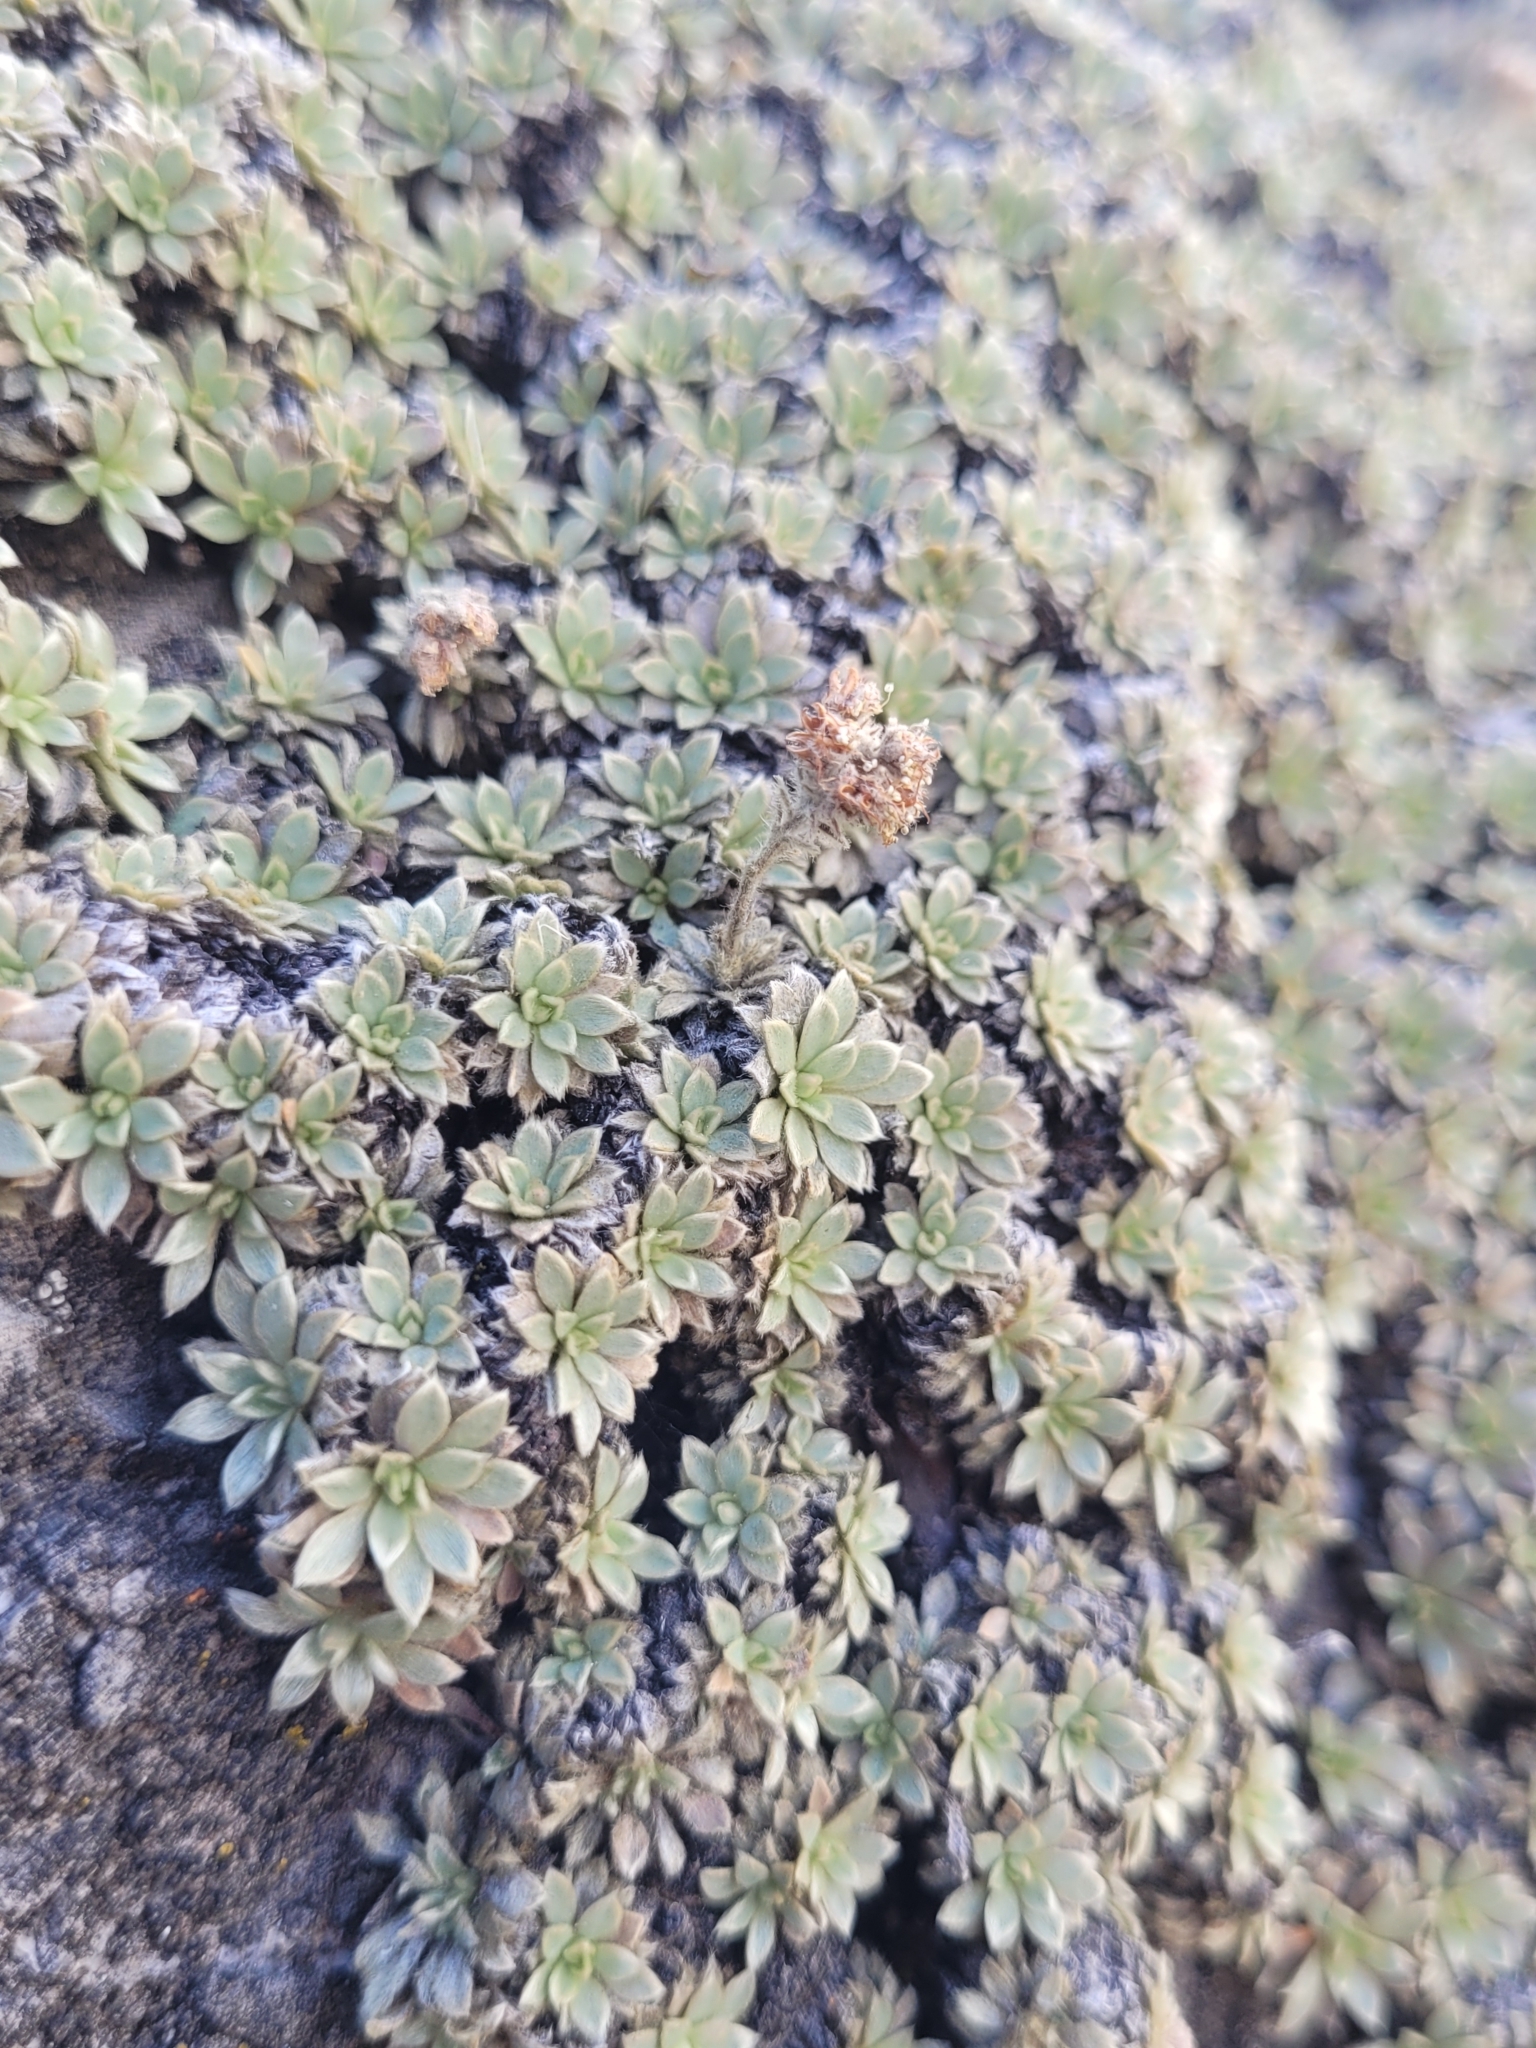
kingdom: Plantae
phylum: Tracheophyta
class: Magnoliopsida
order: Rosales
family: Rosaceae
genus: Petrophytum
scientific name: Petrophytum caespitosum
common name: Mat rockspirea
